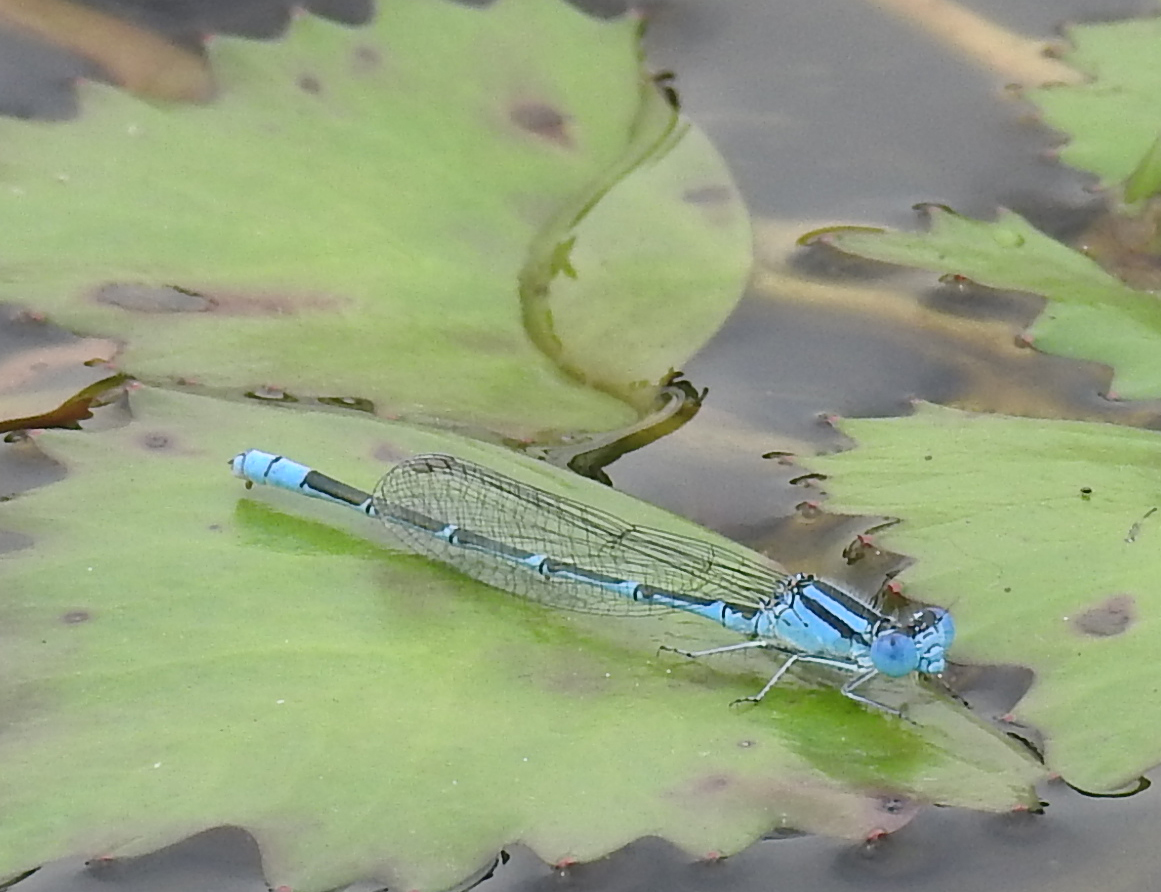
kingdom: Animalia
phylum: Arthropoda
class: Insecta
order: Odonata
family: Coenagrionidae
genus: Paracercion
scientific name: Paracercion melanotum
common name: Eastern lilysquatter
